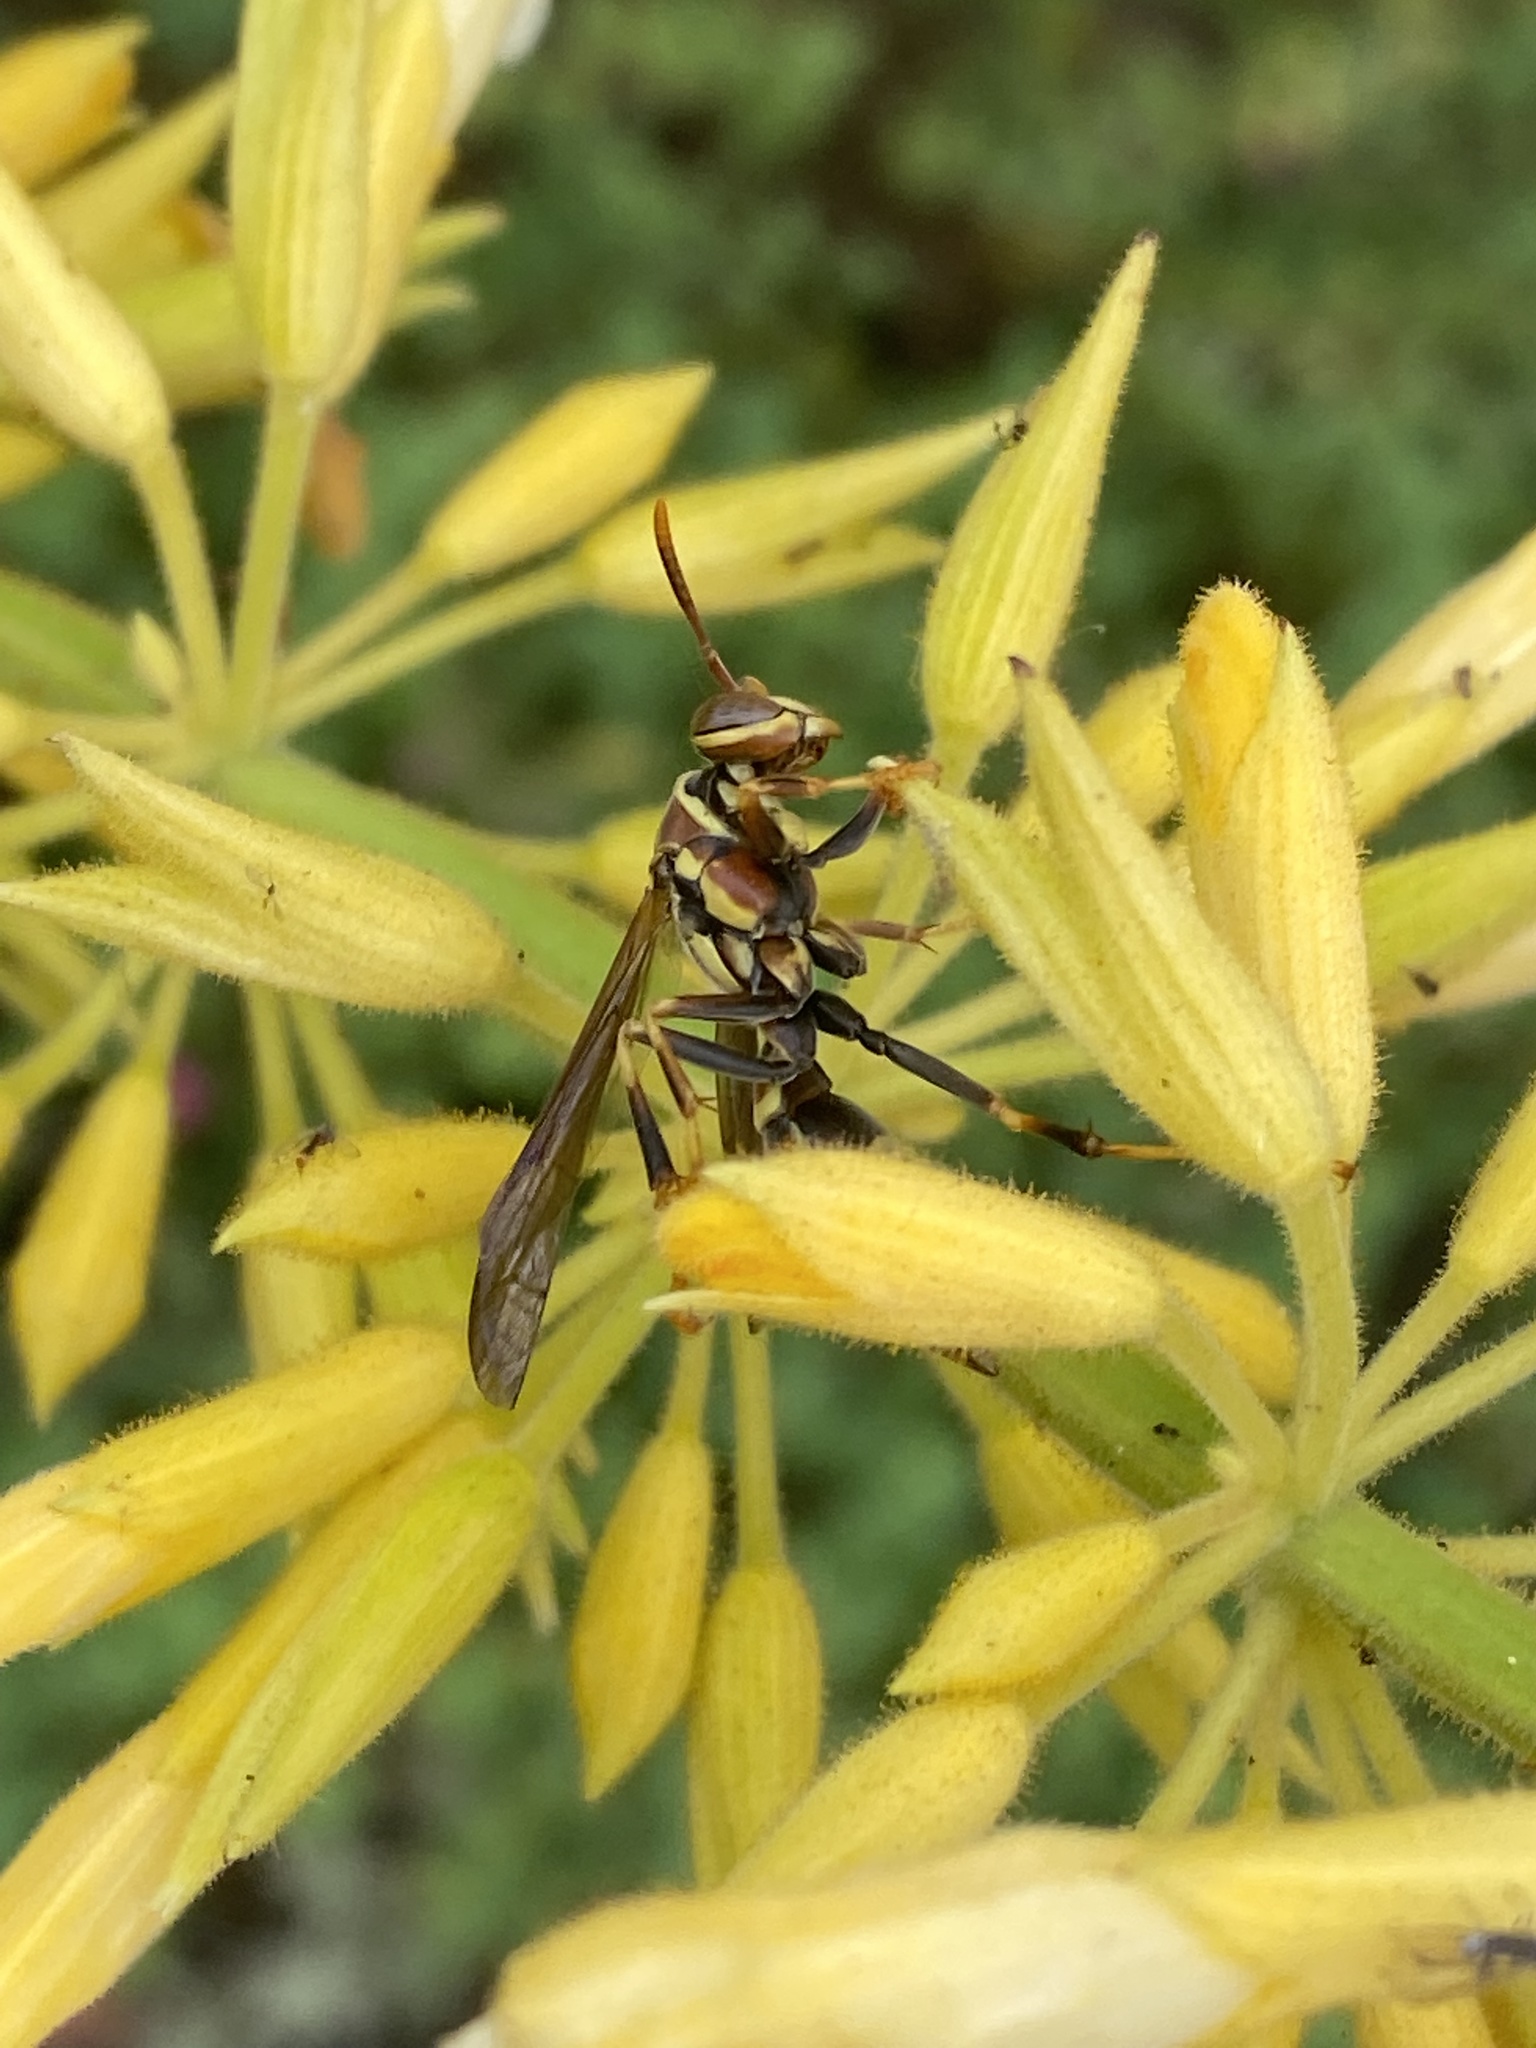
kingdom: Animalia
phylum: Arthropoda
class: Insecta
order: Hymenoptera
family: Eumenidae
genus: Polistes
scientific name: Polistes exclamans
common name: Paper wasp
